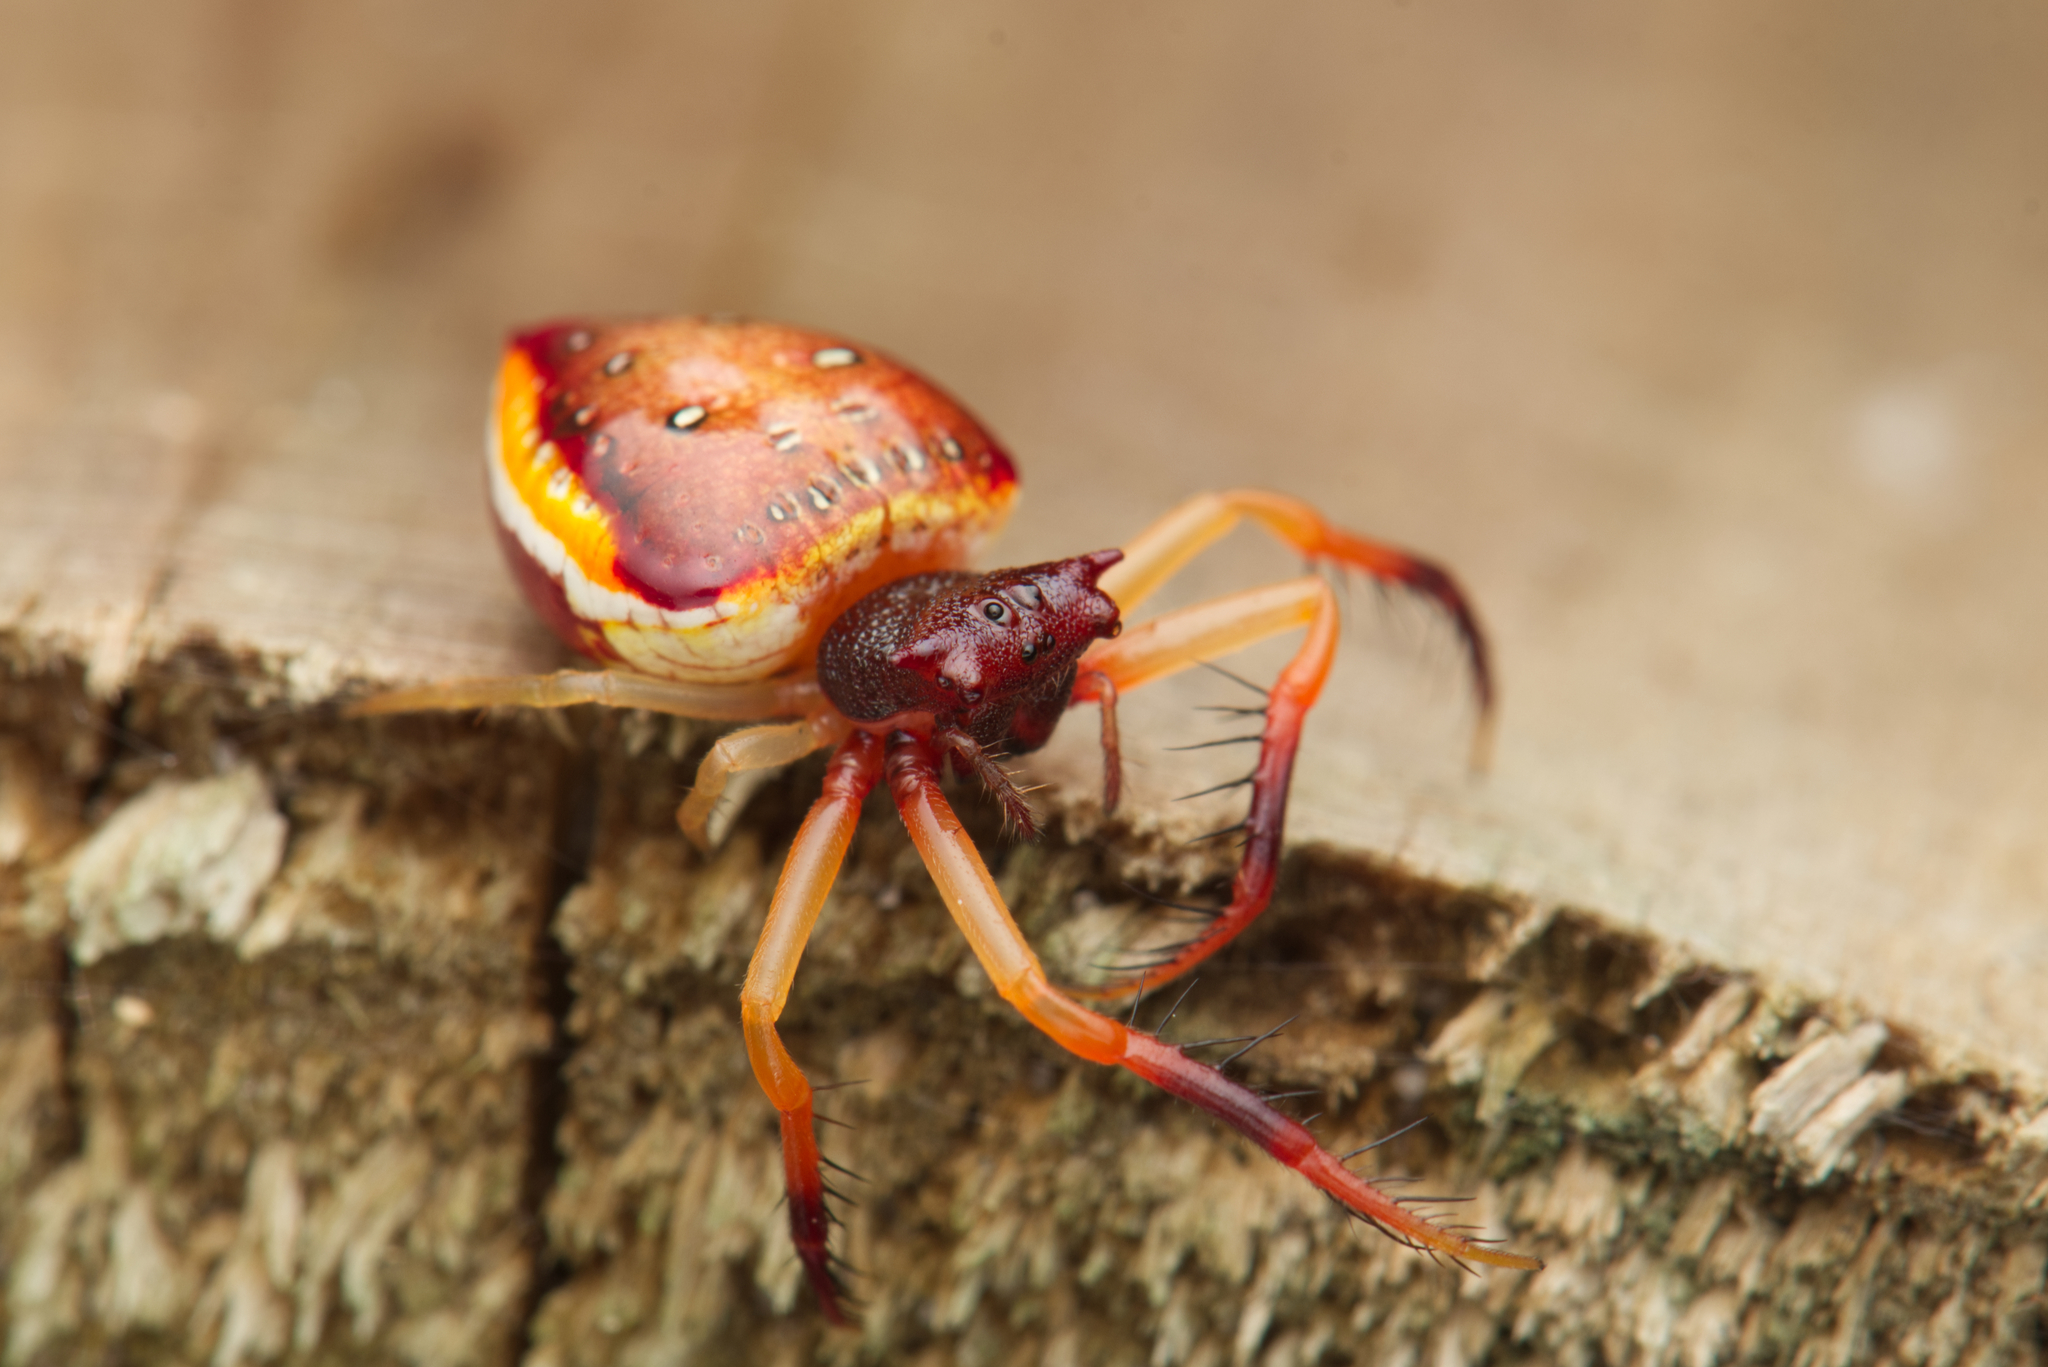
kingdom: Animalia
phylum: Arthropoda
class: Arachnida
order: Araneae
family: Arkyidae
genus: Arkys
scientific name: Arkys cornutus
